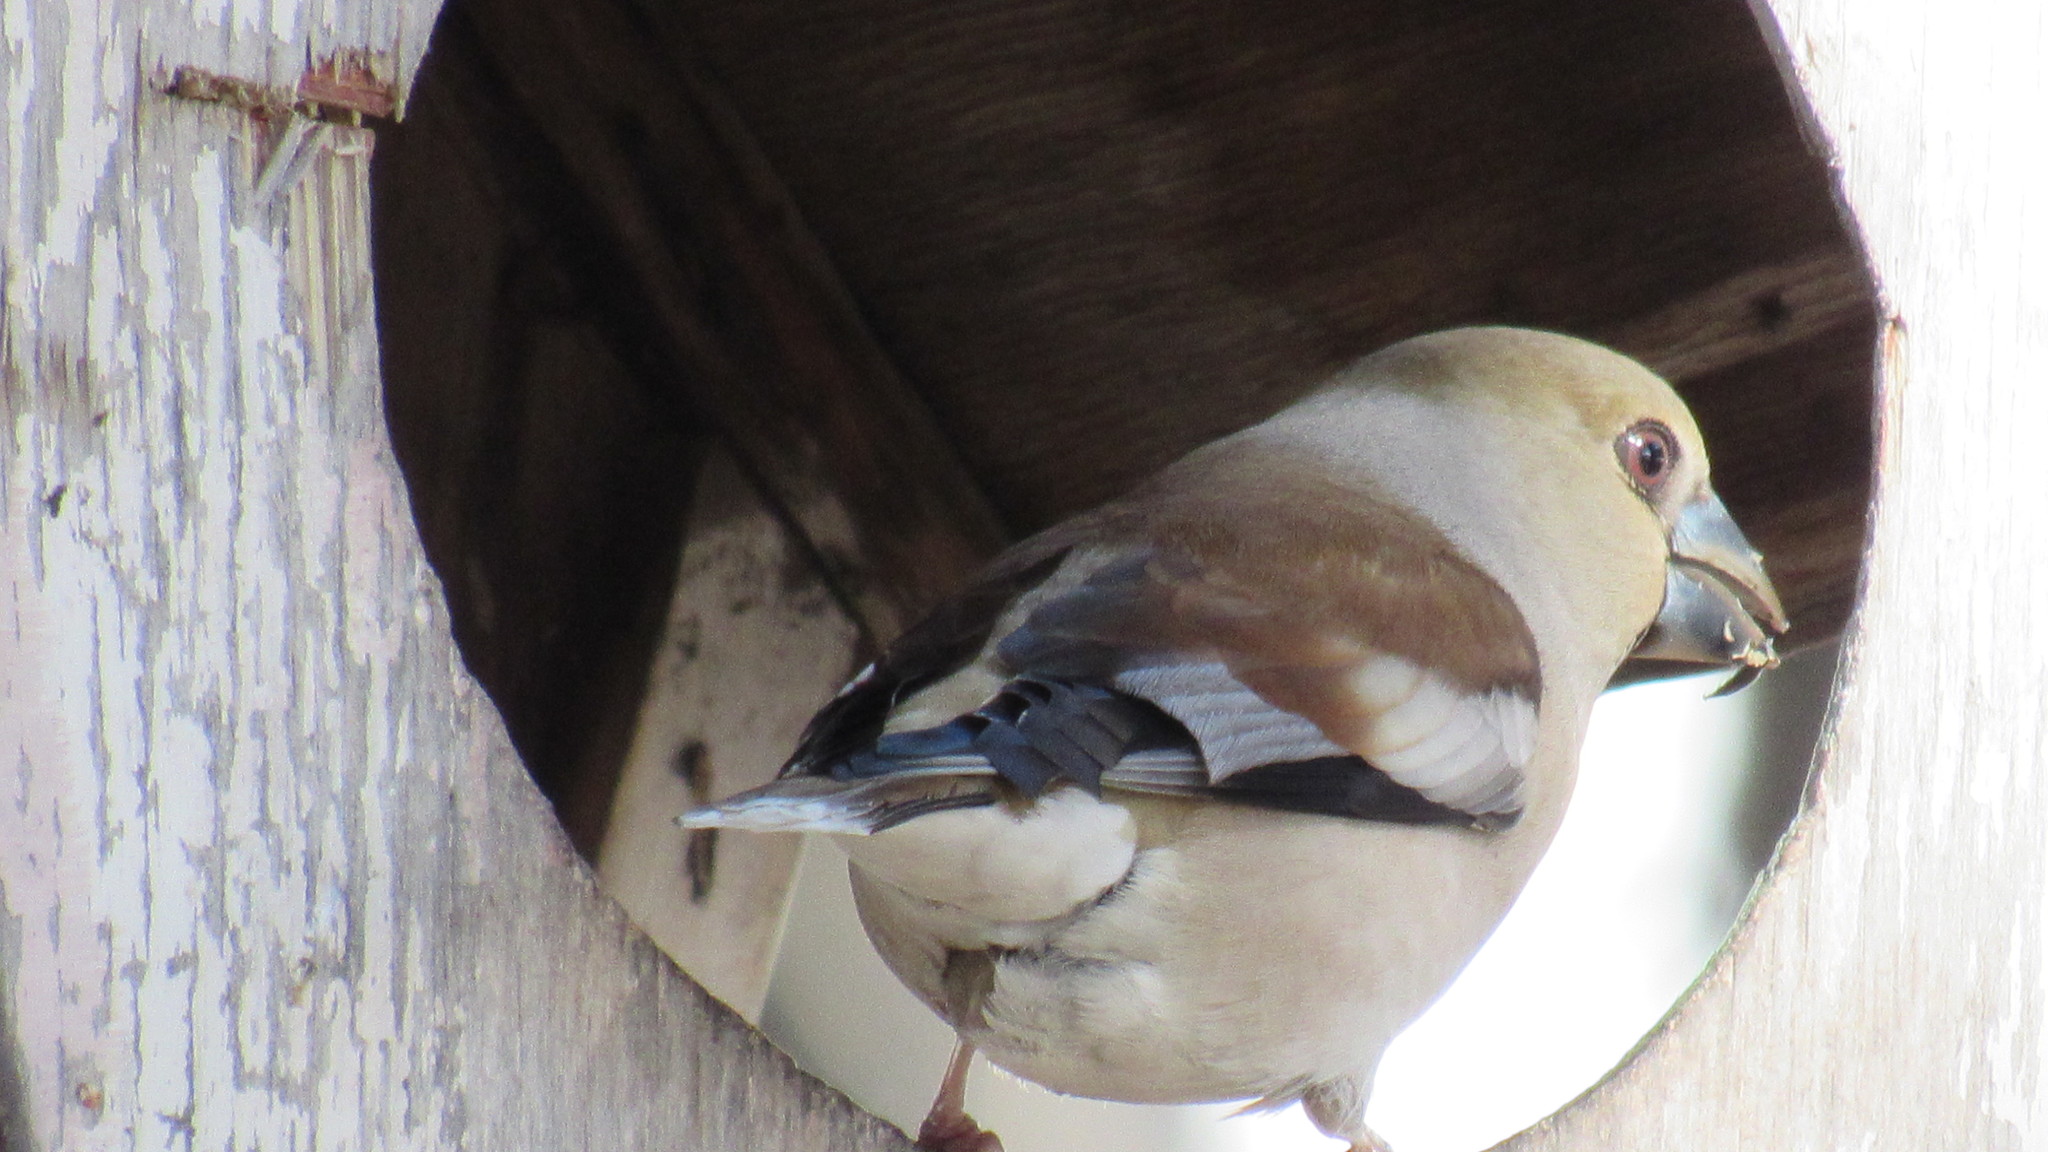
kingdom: Animalia
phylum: Chordata
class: Aves
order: Passeriformes
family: Fringillidae
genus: Coccothraustes
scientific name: Coccothraustes coccothraustes
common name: Hawfinch
